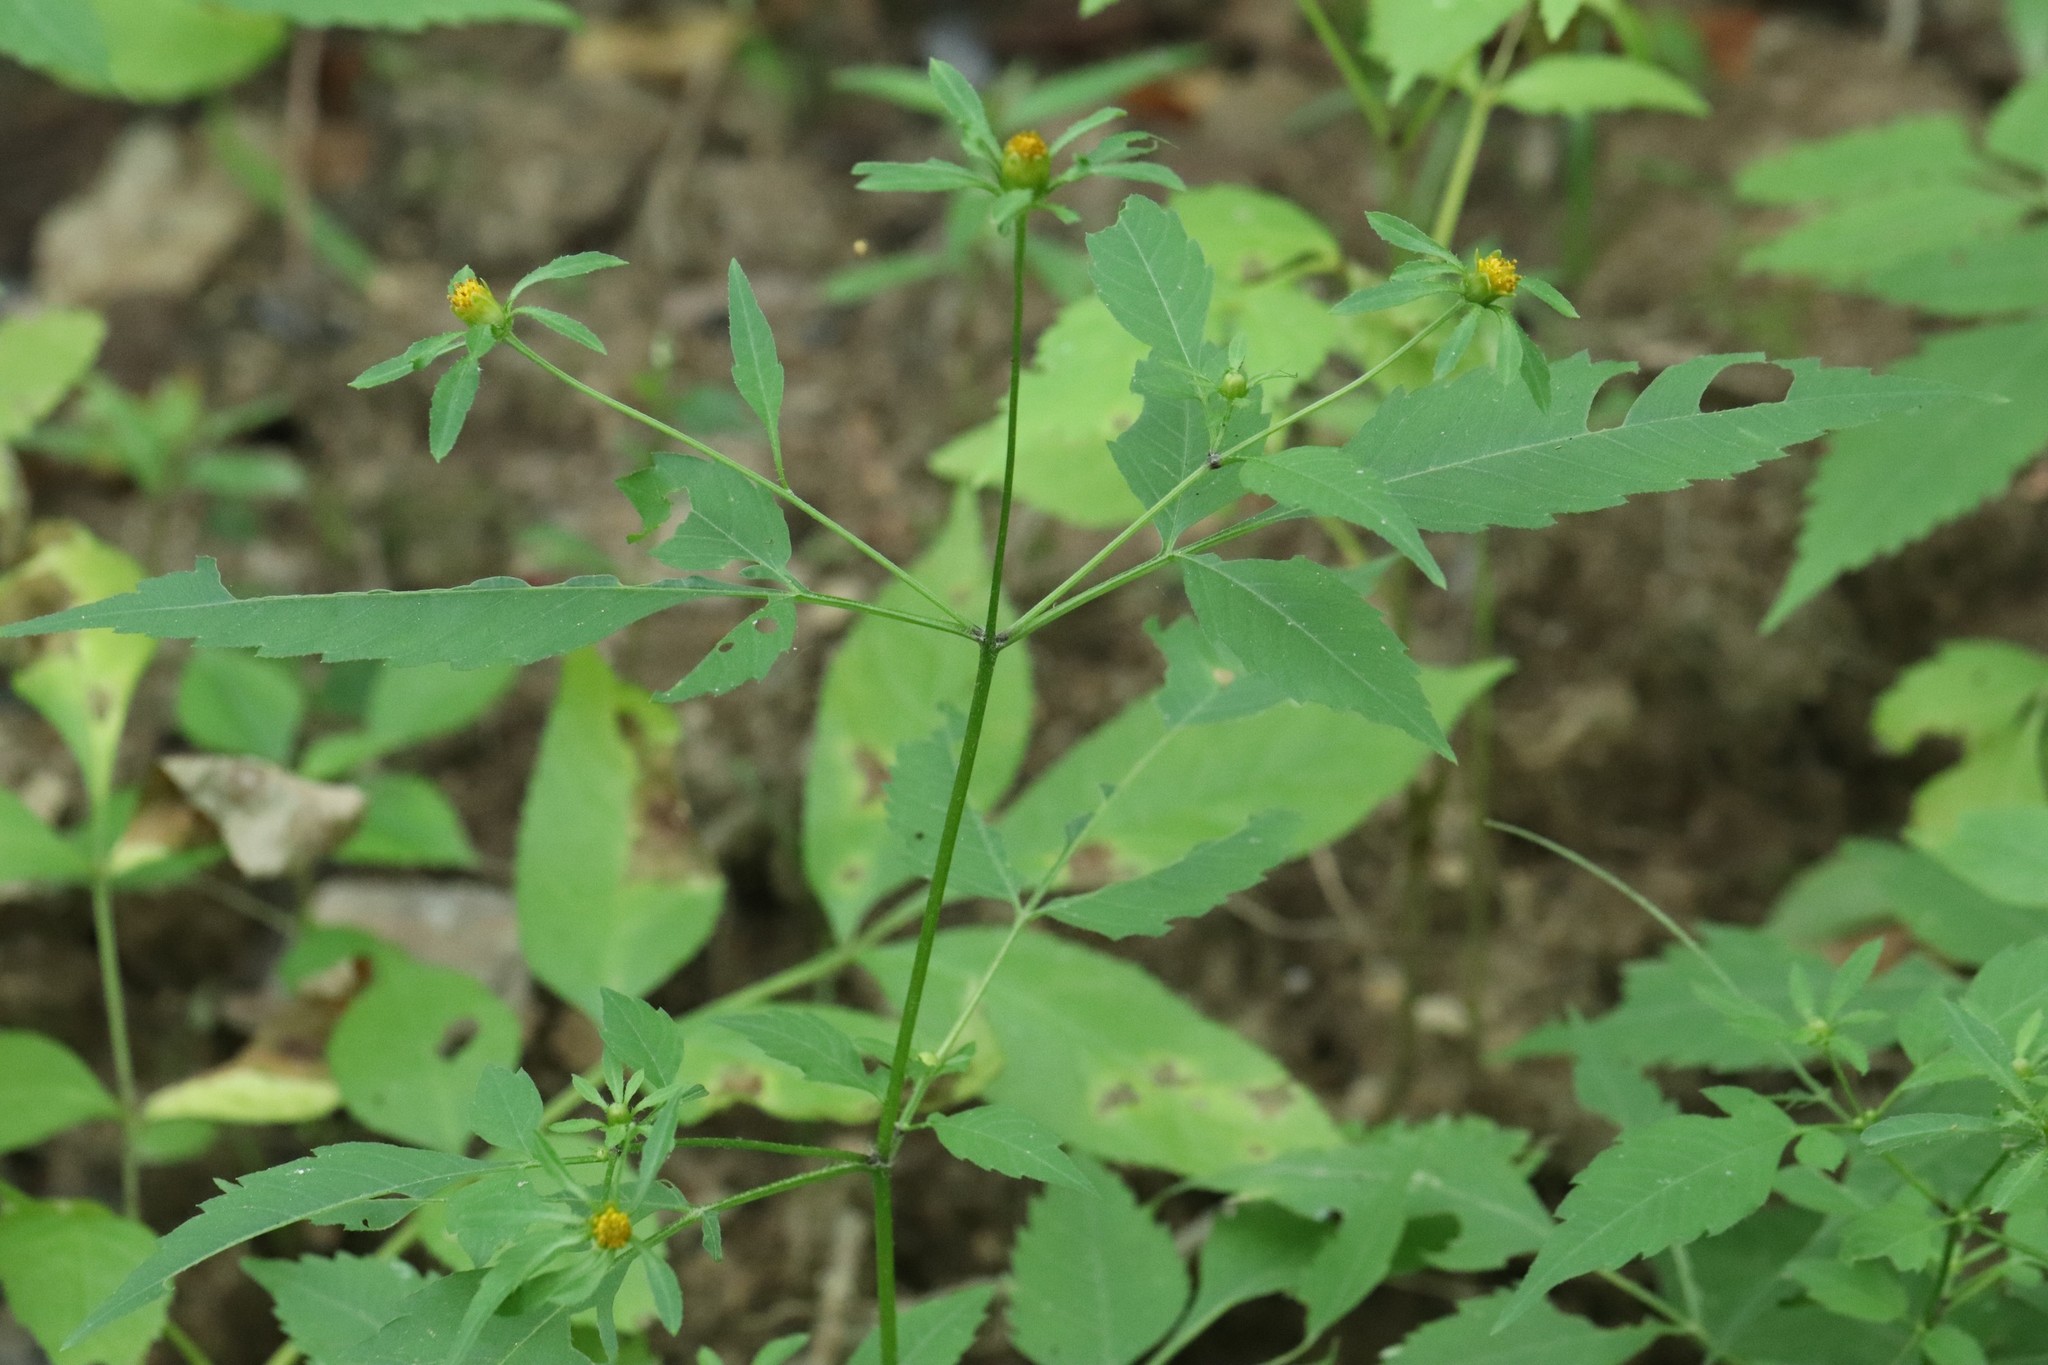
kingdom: Plantae
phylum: Tracheophyta
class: Magnoliopsida
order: Asterales
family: Asteraceae
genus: Bidens
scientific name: Bidens frondosa
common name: Beggarticks
